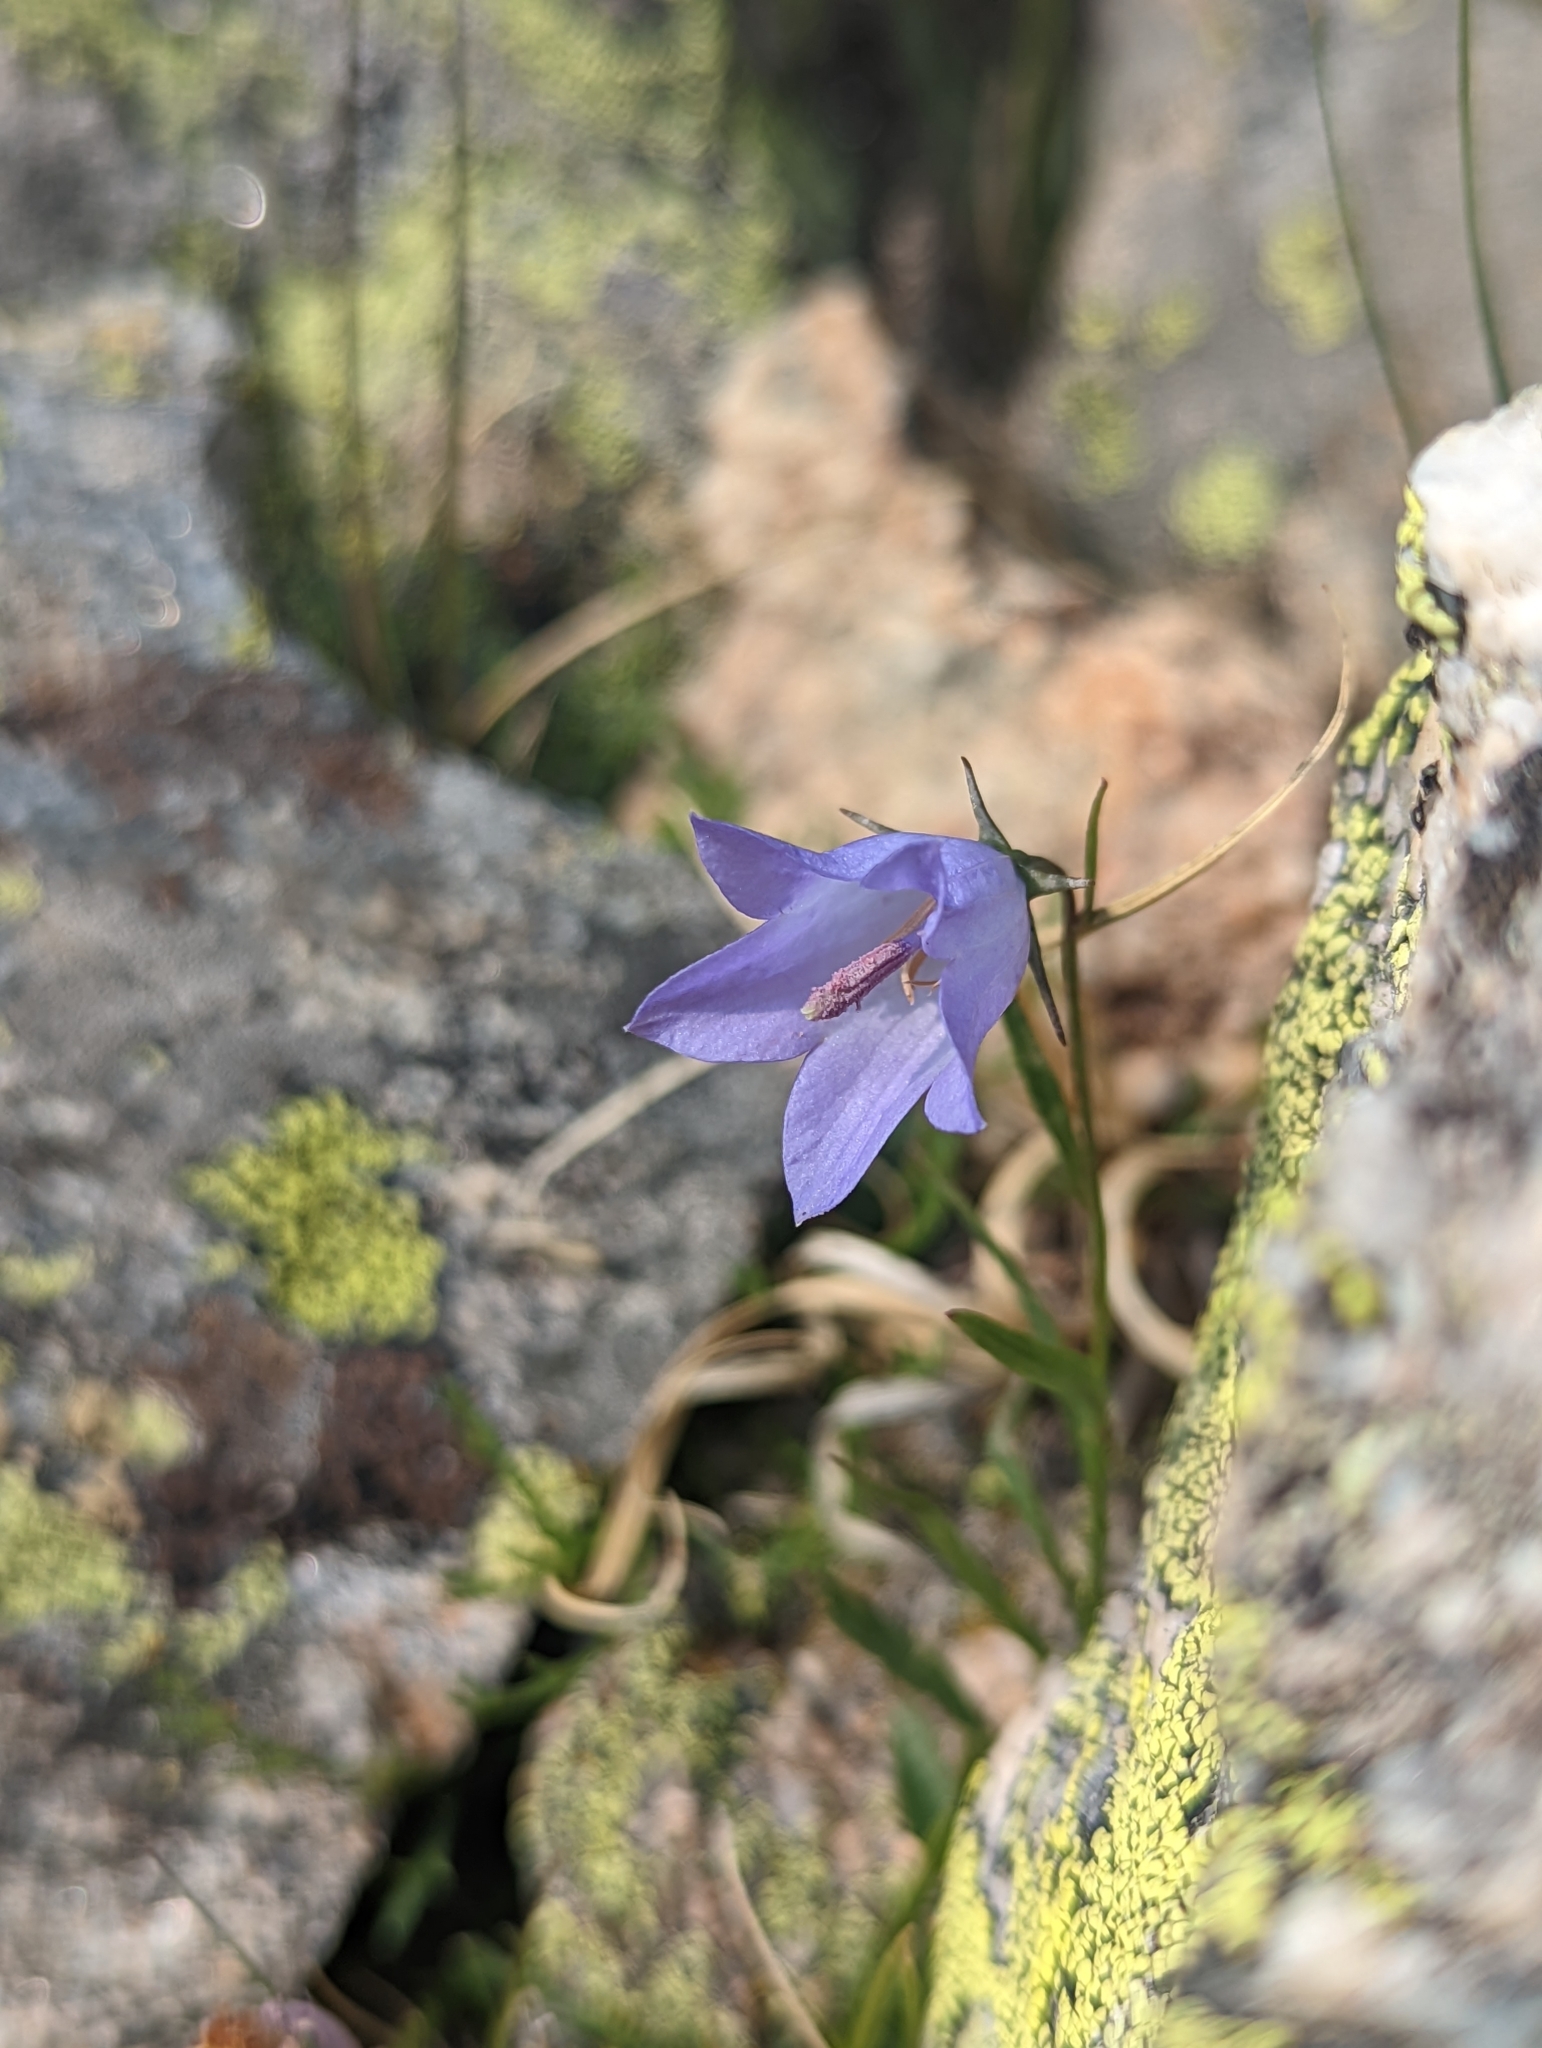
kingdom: Plantae
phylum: Tracheophyta
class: Magnoliopsida
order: Asterales
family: Campanulaceae
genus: Campanula
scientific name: Campanula petiolata
